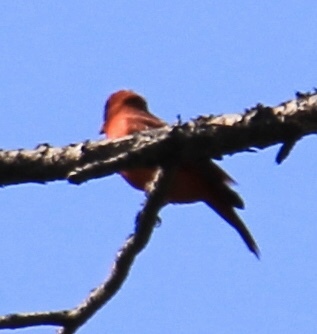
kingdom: Animalia
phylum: Chordata
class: Aves
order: Passeriformes
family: Cardinalidae
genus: Piranga
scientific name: Piranga rubra
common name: Summer tanager
